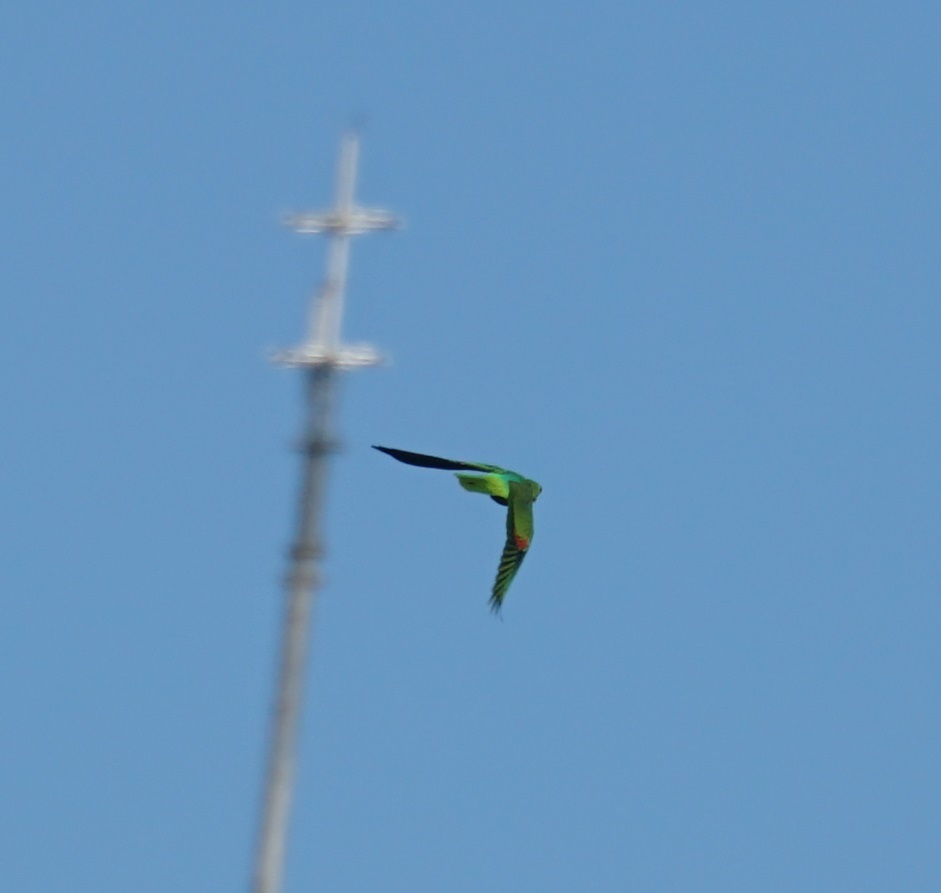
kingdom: Animalia
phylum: Chordata
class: Aves
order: Psittaciformes
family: Psittacidae
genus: Aprosmictus
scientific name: Aprosmictus erythropterus
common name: Red-winged parrot
